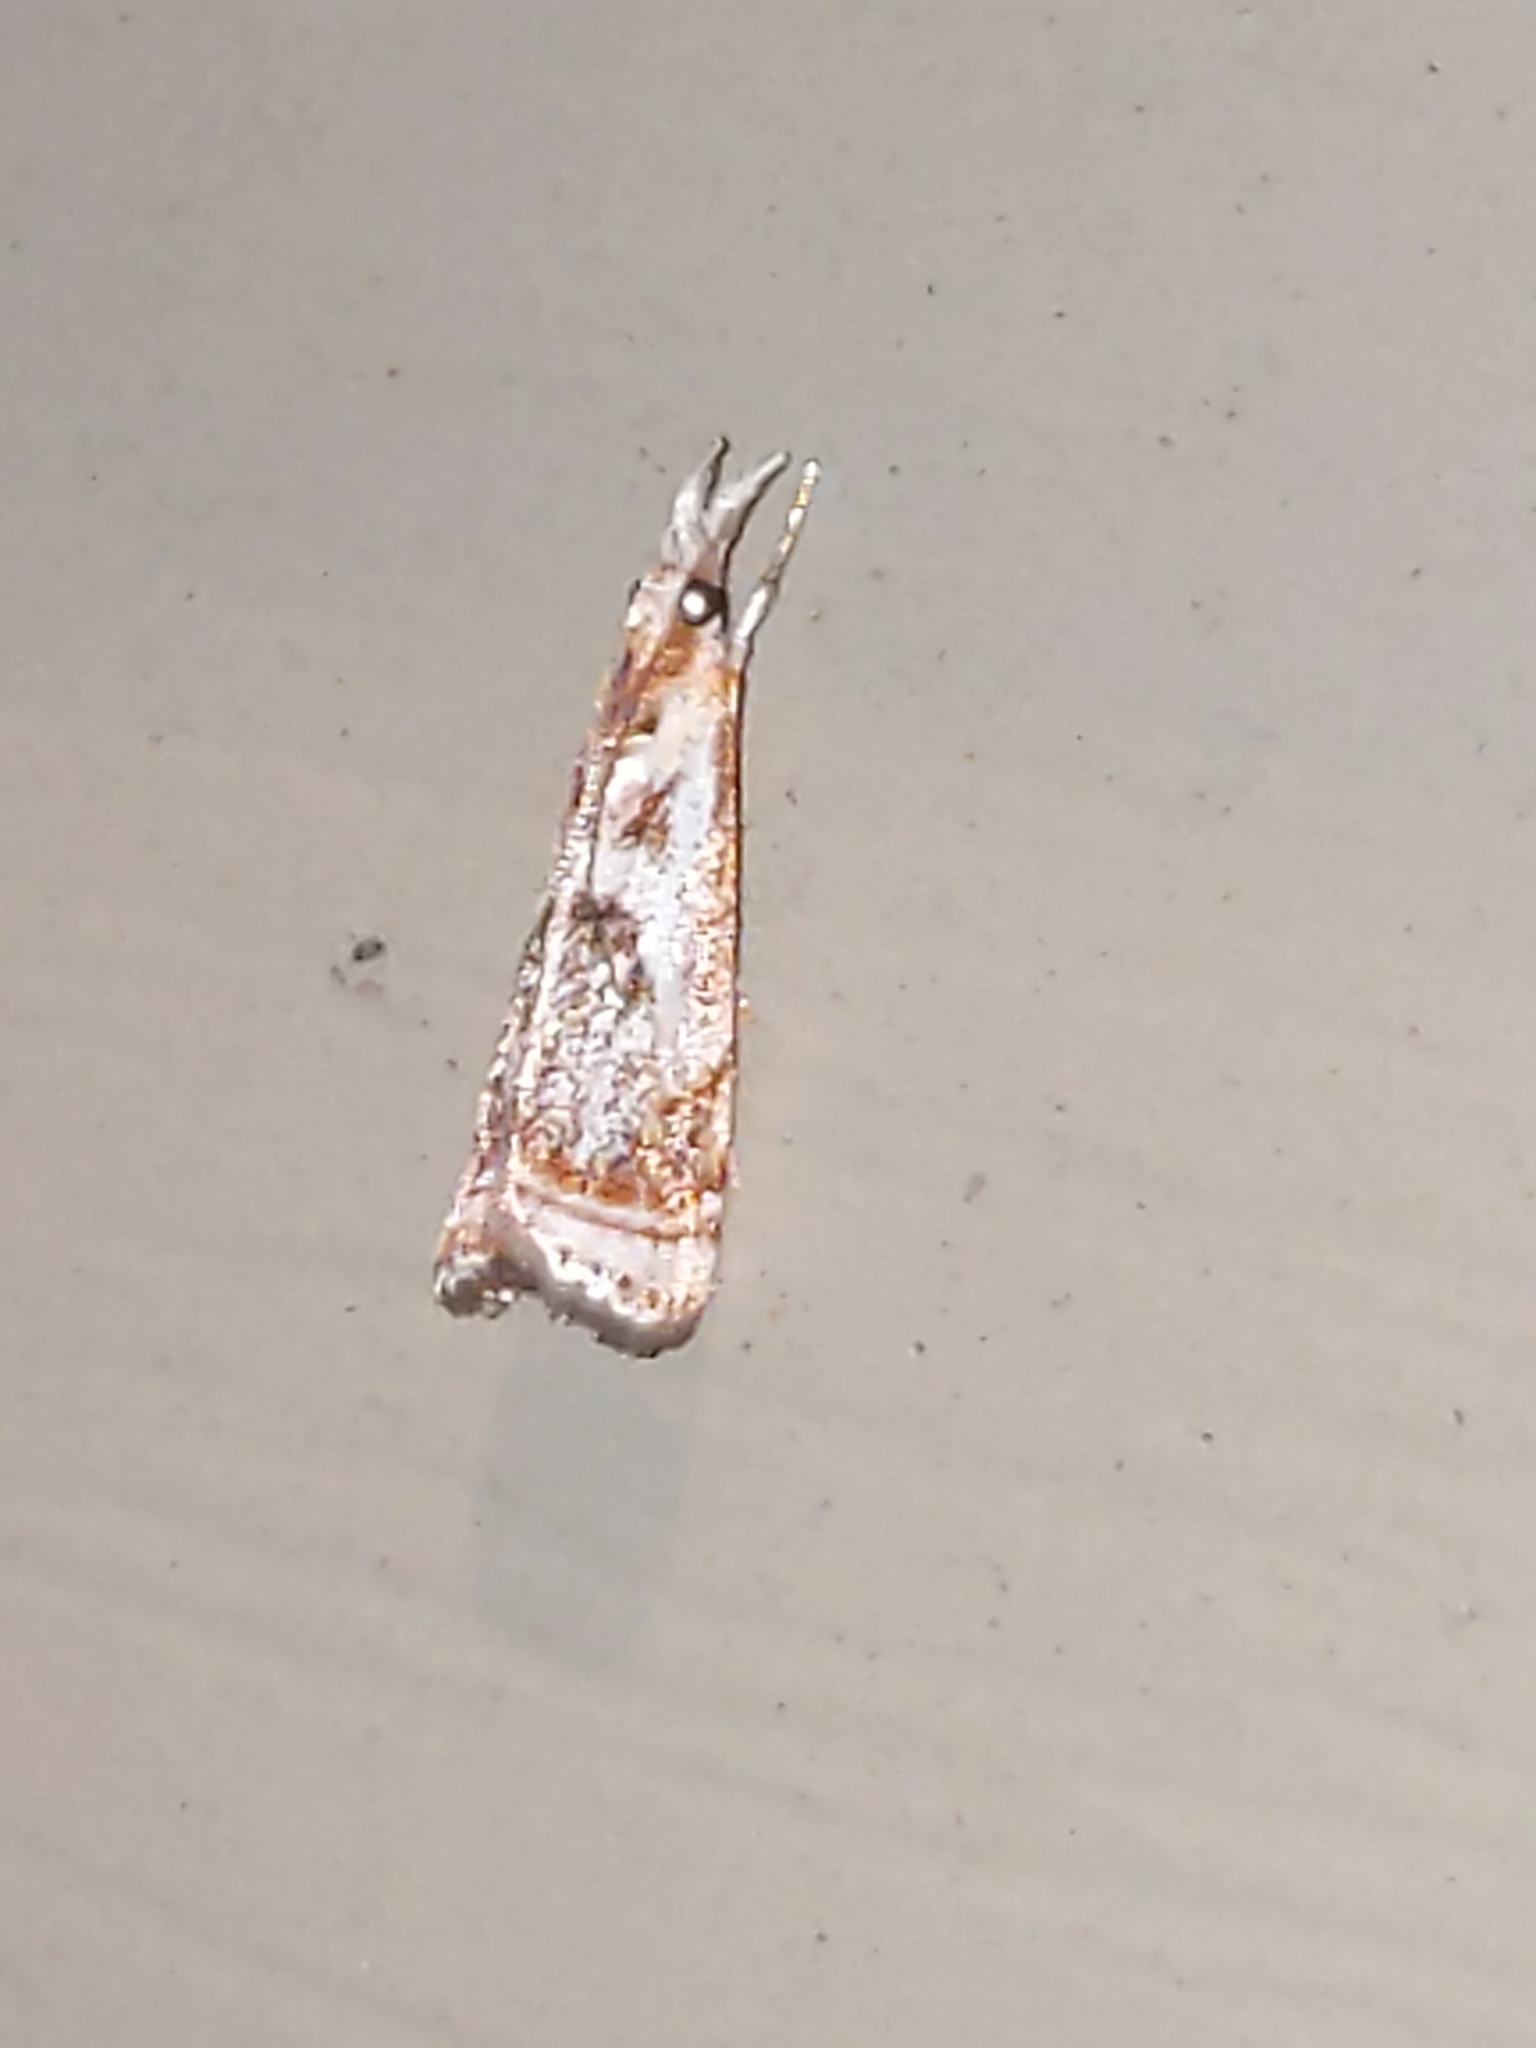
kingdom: Animalia
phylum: Arthropoda
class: Insecta
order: Lepidoptera
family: Crambidae
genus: Microcrambus
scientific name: Microcrambus elegans
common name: Elegant grass-veneer
